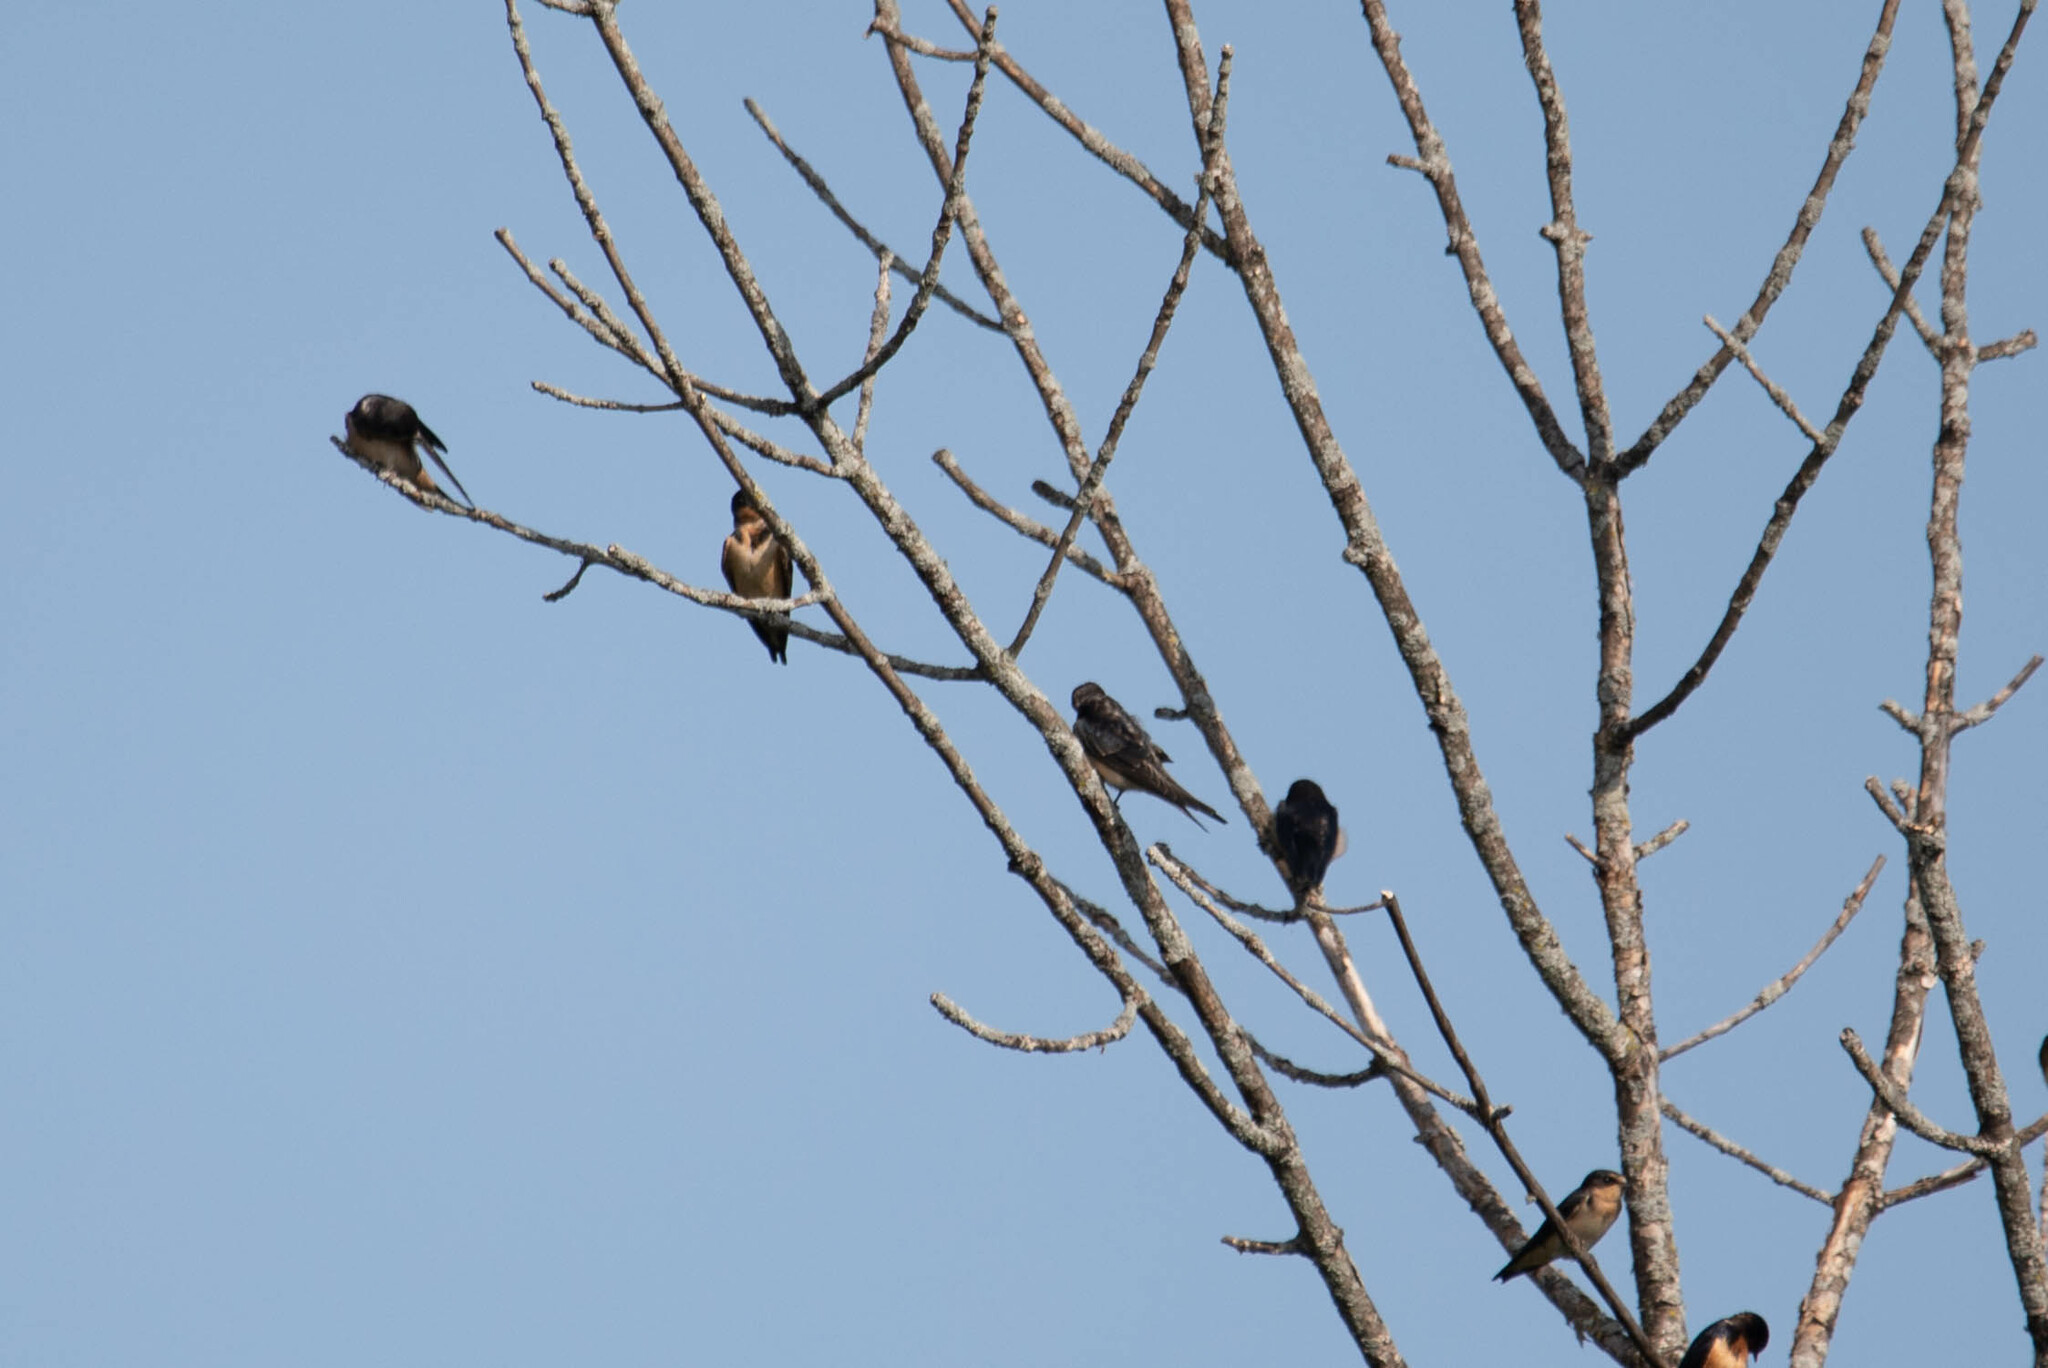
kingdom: Animalia
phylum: Chordata
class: Aves
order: Passeriformes
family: Hirundinidae
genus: Hirundo
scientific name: Hirundo rustica
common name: Barn swallow
